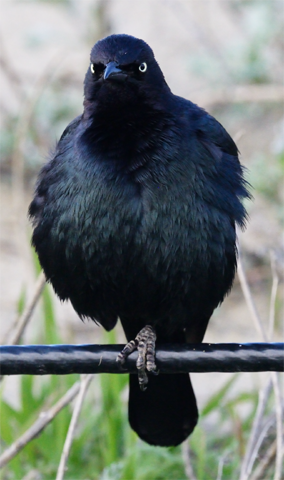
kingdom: Animalia
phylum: Chordata
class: Aves
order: Passeriformes
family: Icteridae
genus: Euphagus
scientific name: Euphagus cyanocephalus
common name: Brewer's blackbird
